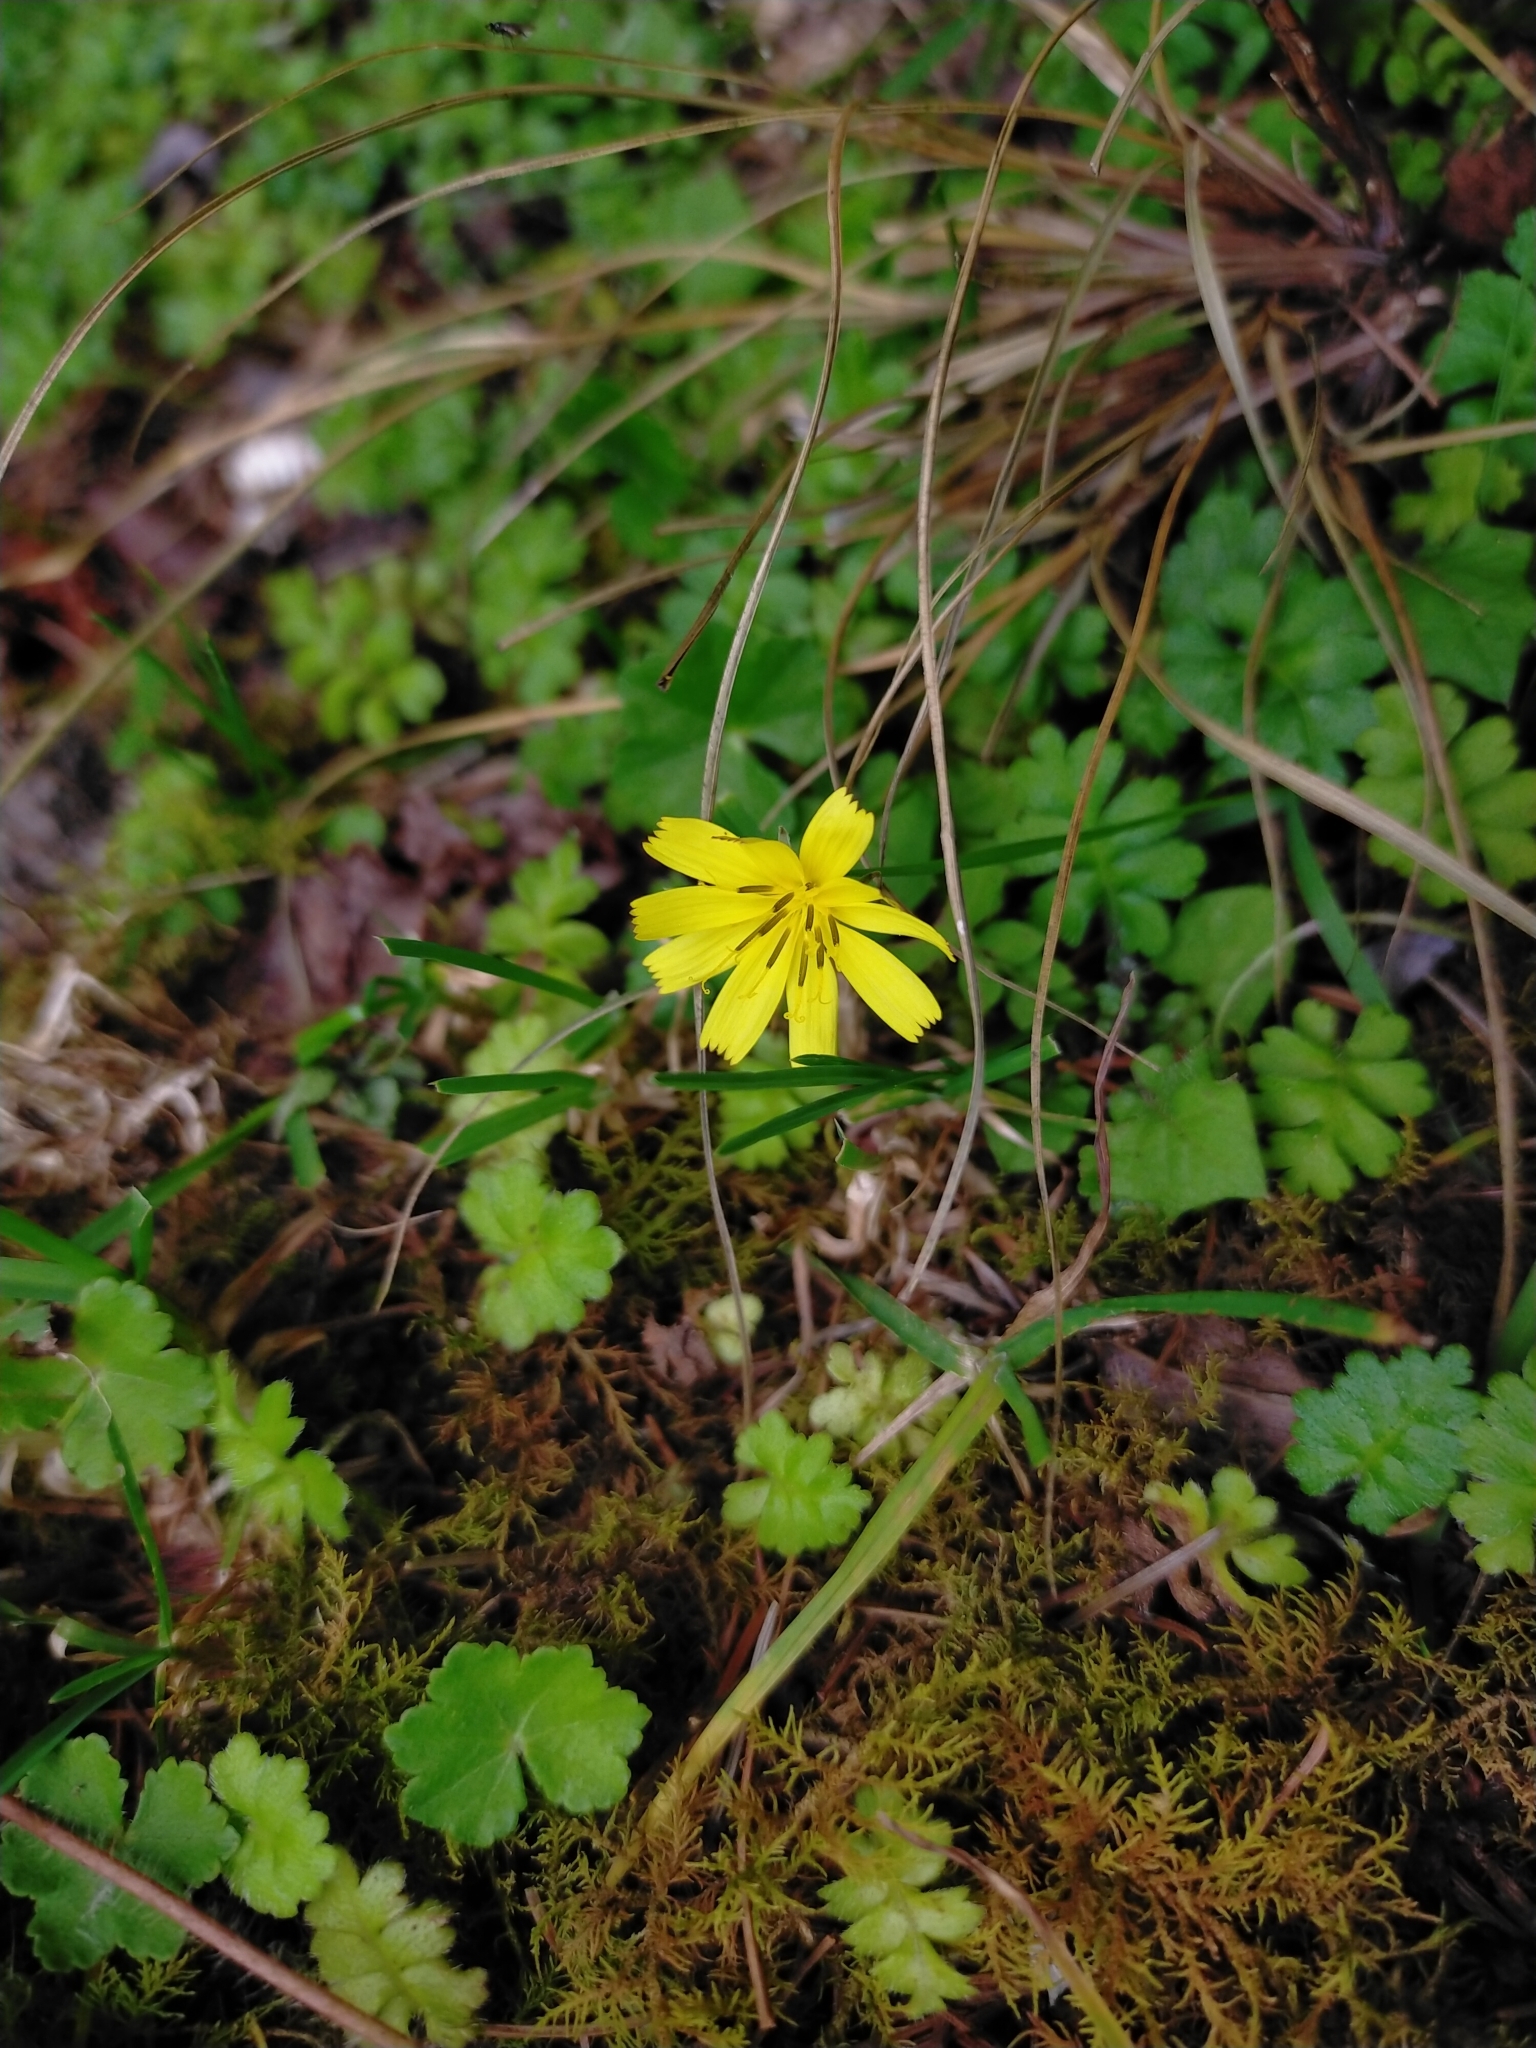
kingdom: Plantae
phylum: Tracheophyta
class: Magnoliopsida
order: Asterales
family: Asteraceae
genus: Lapsanastrum
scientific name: Lapsanastrum takasei
